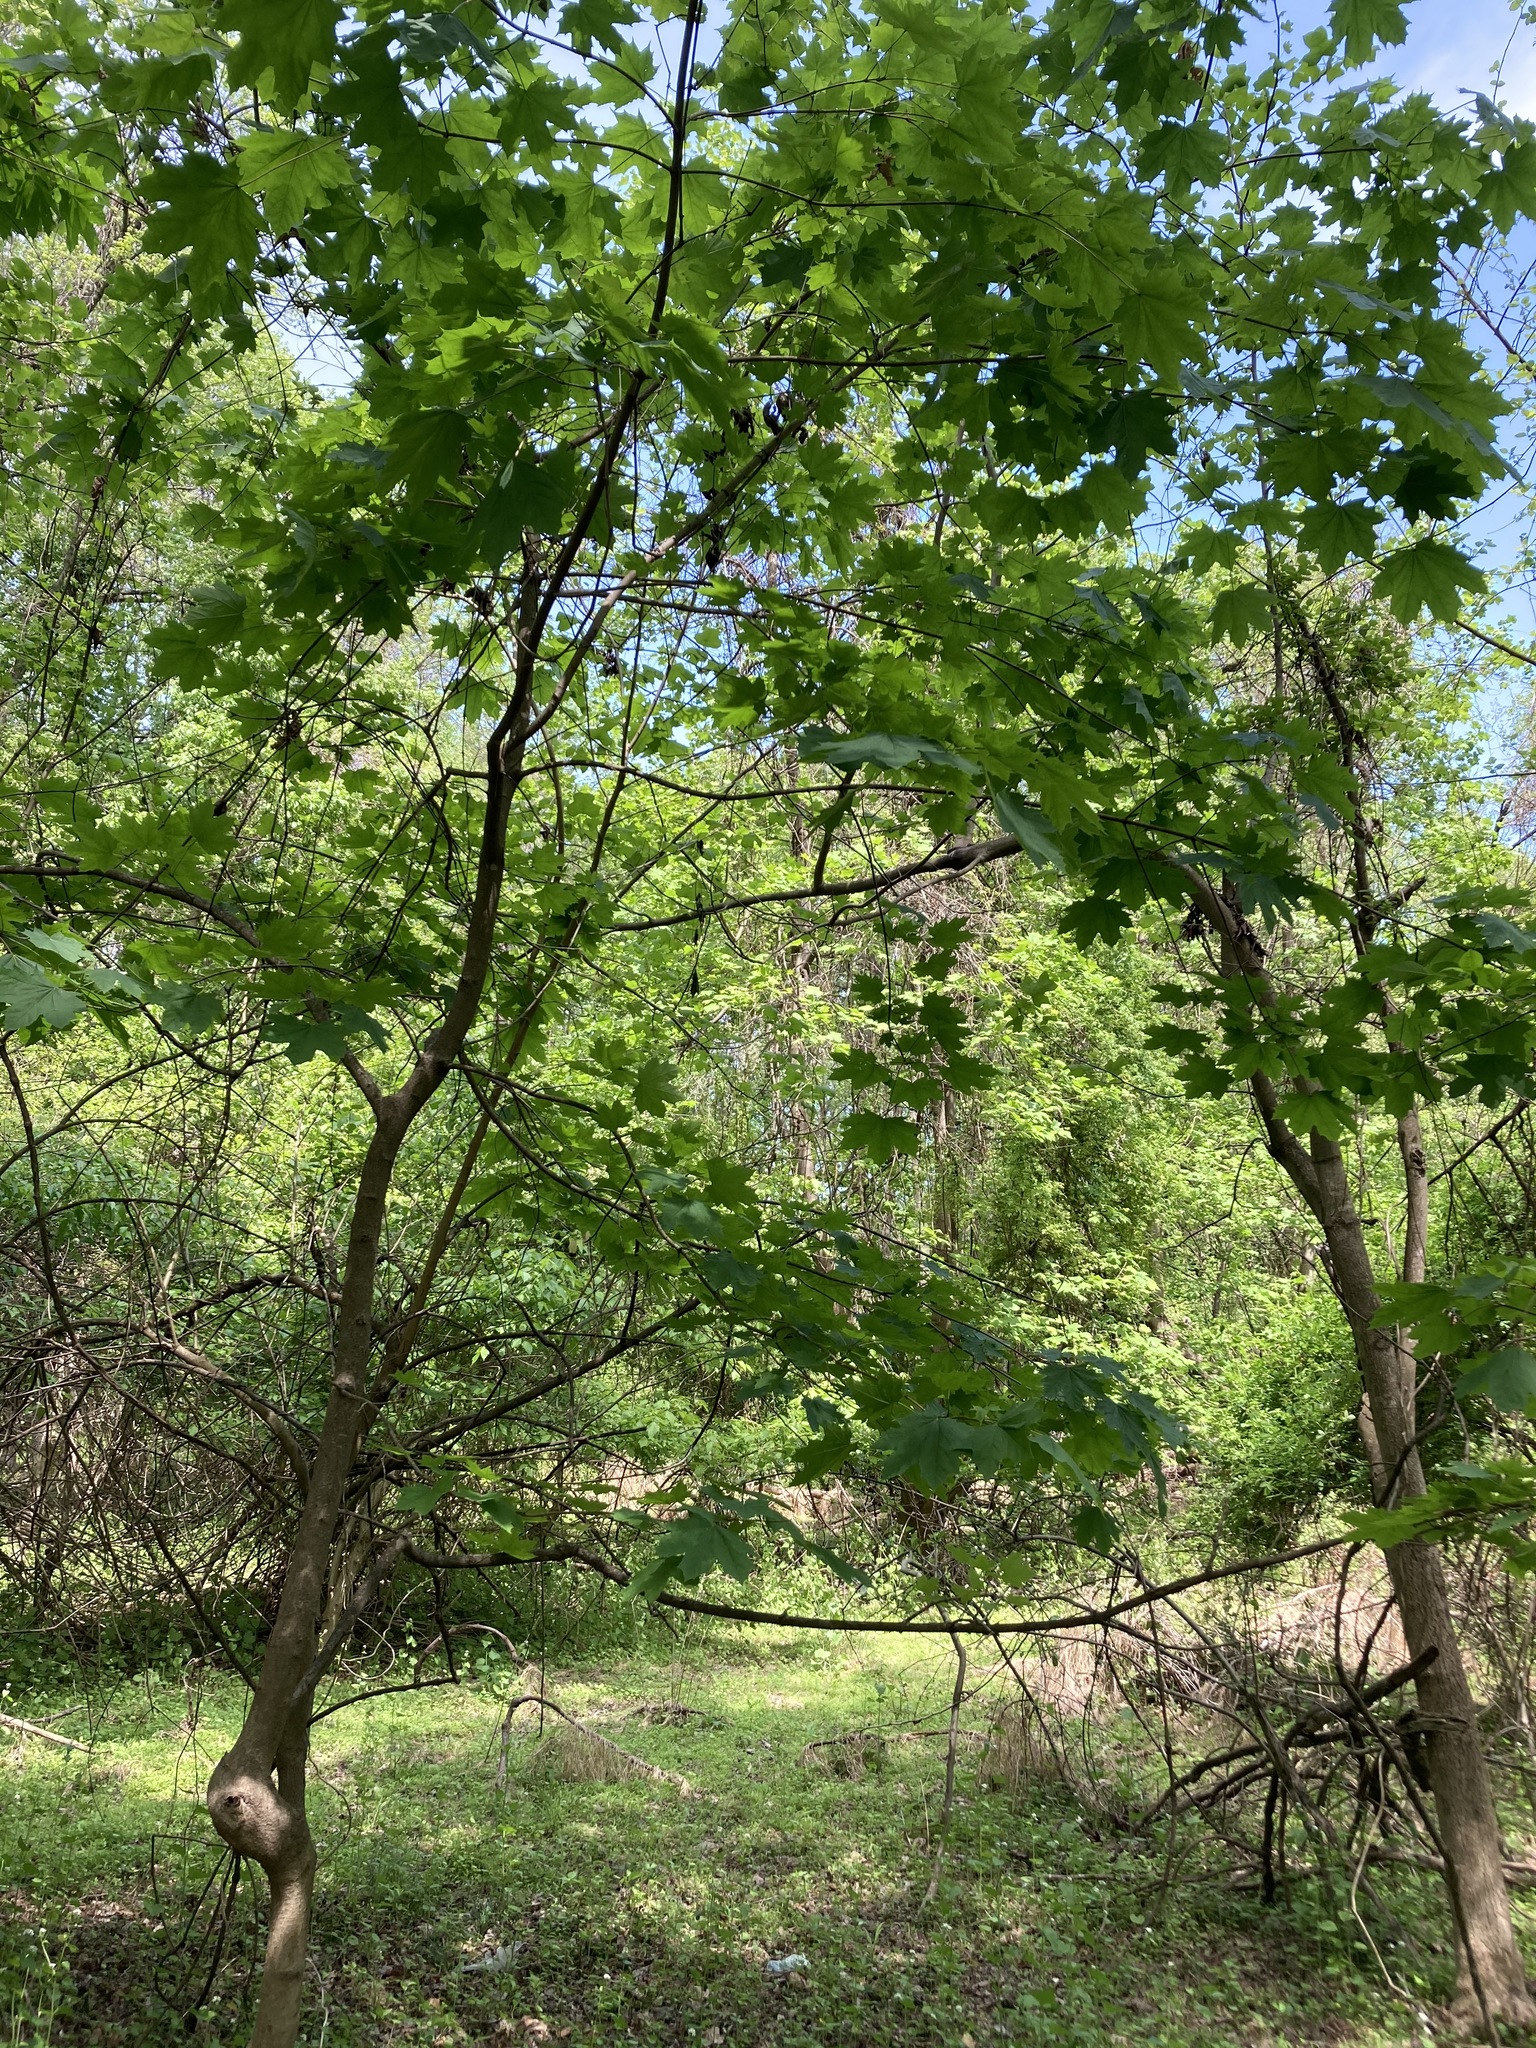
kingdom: Plantae
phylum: Tracheophyta
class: Magnoliopsida
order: Sapindales
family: Sapindaceae
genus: Acer
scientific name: Acer platanoides
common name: Norway maple
